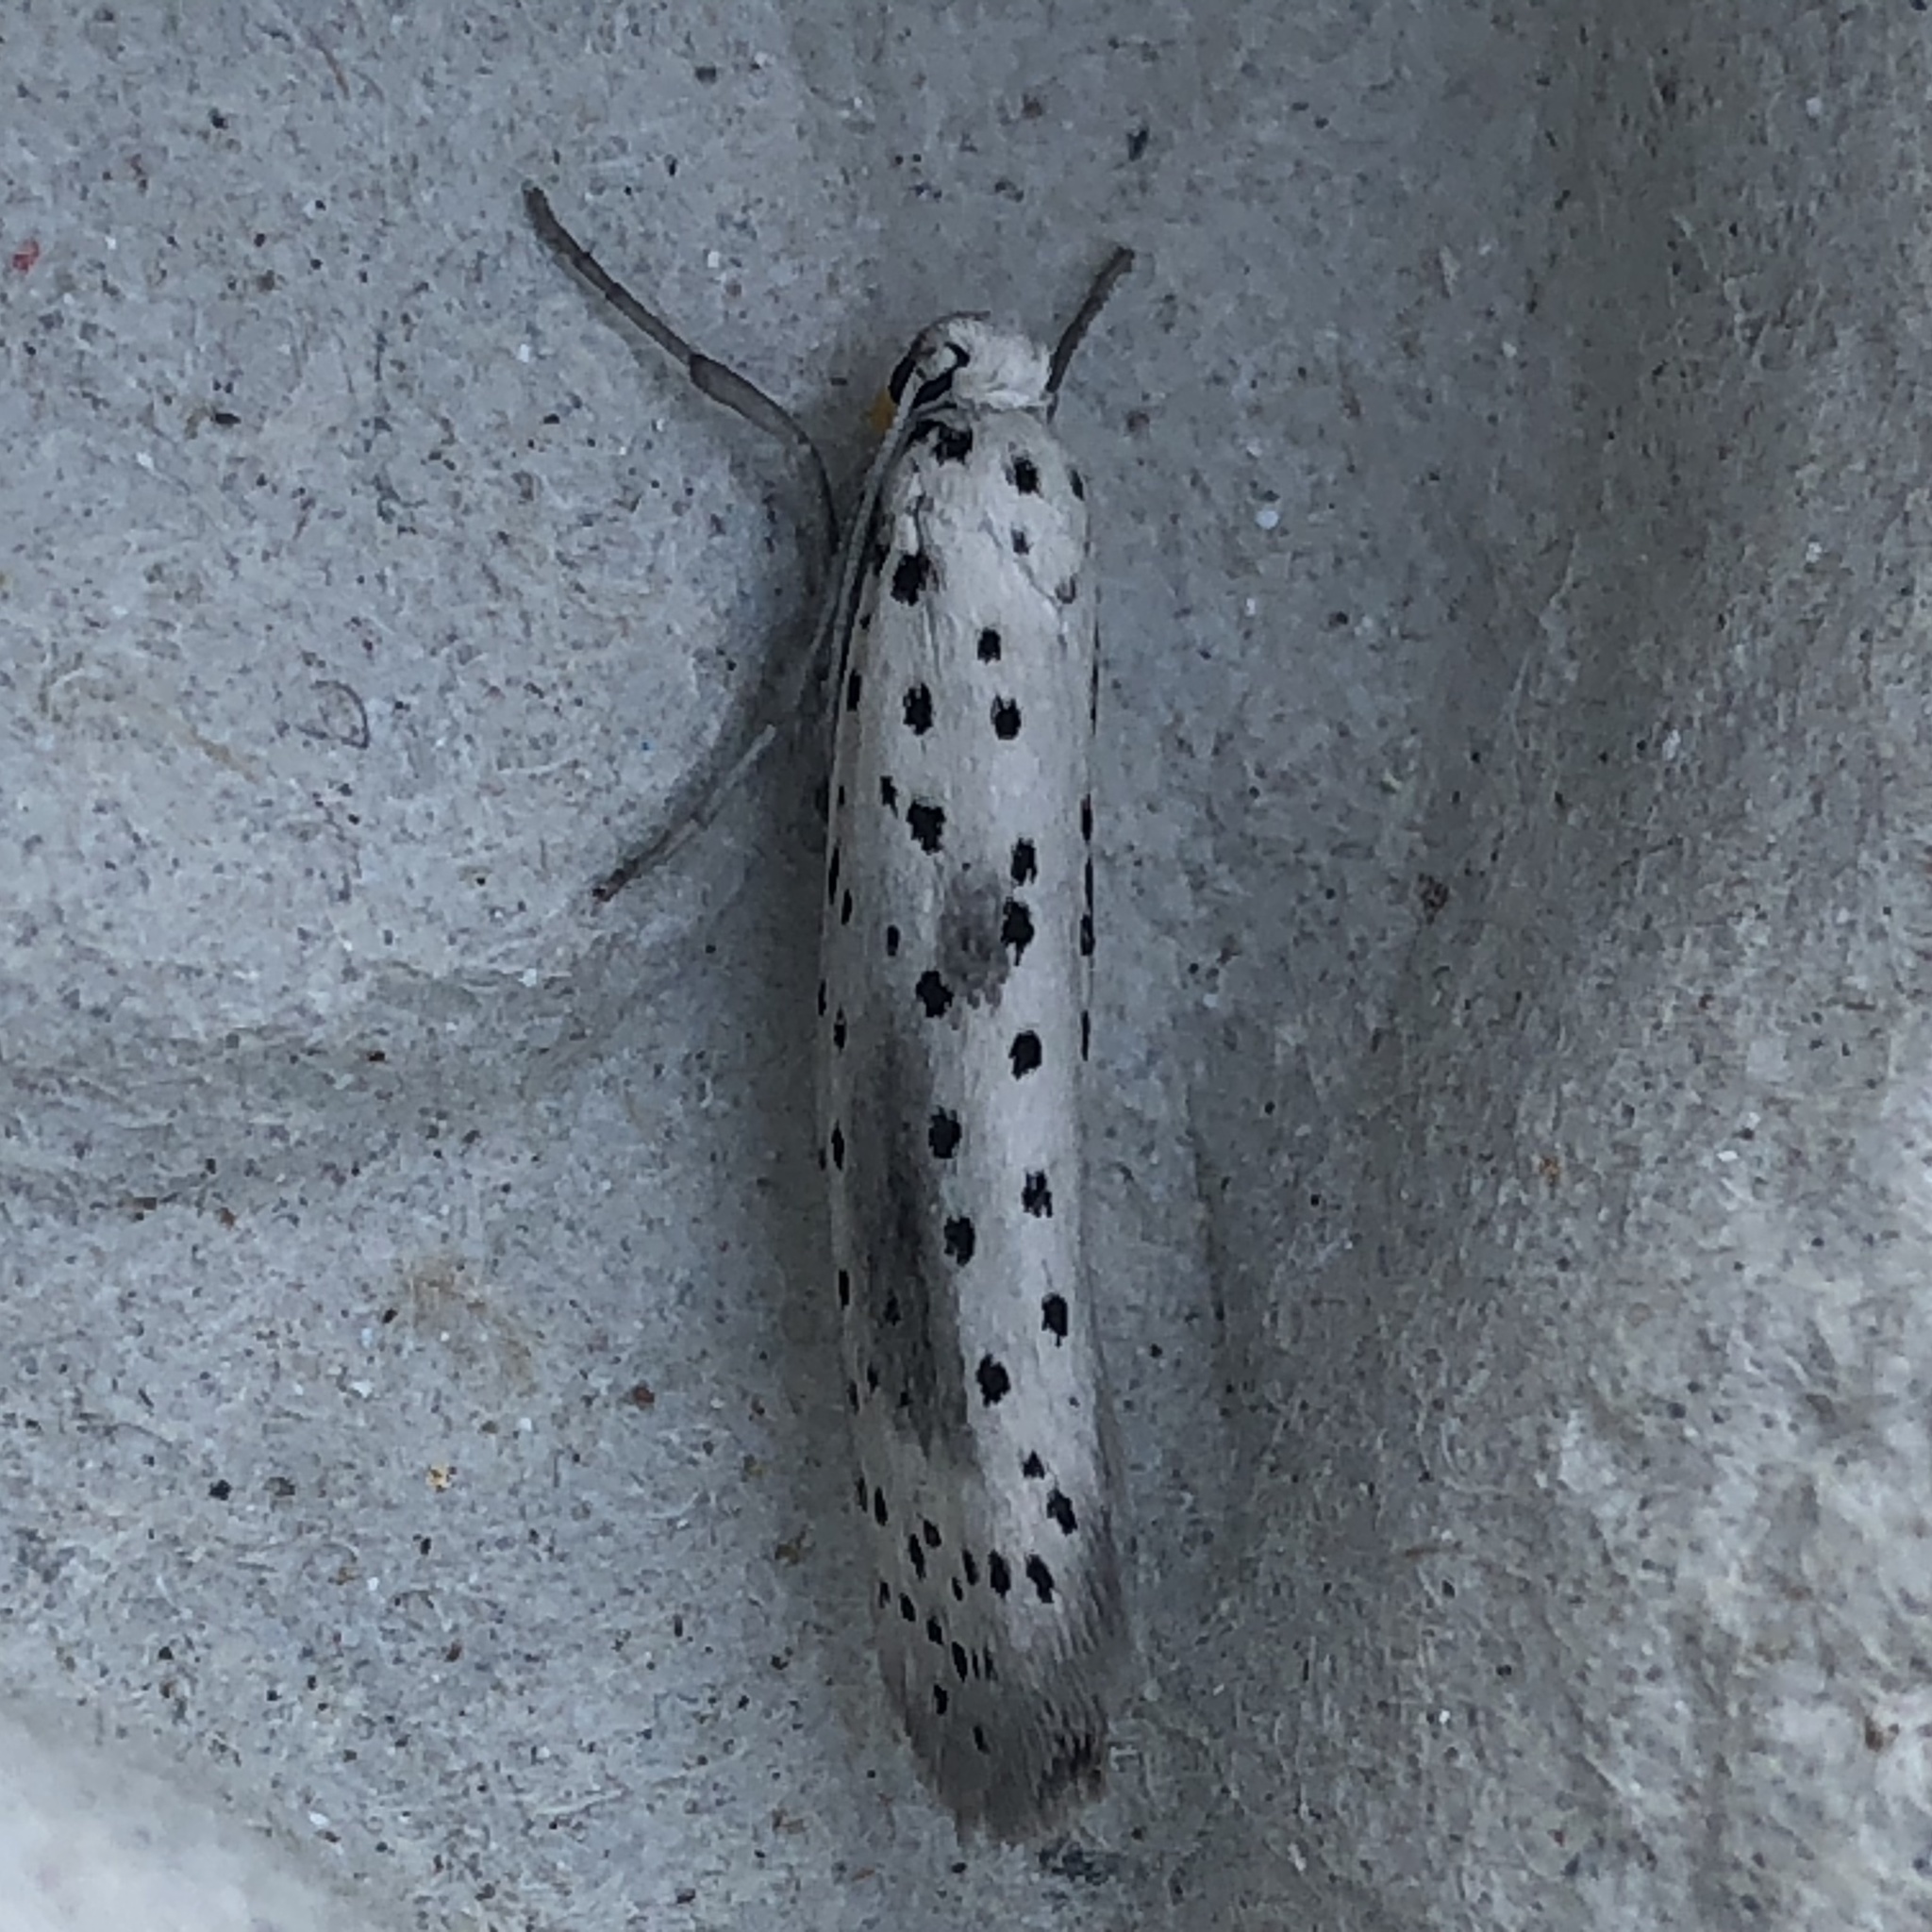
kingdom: Animalia
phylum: Arthropoda
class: Insecta
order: Lepidoptera
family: Yponomeutidae
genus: Yponomeuta
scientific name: Yponomeuta irrorella
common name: Scarce ermine
